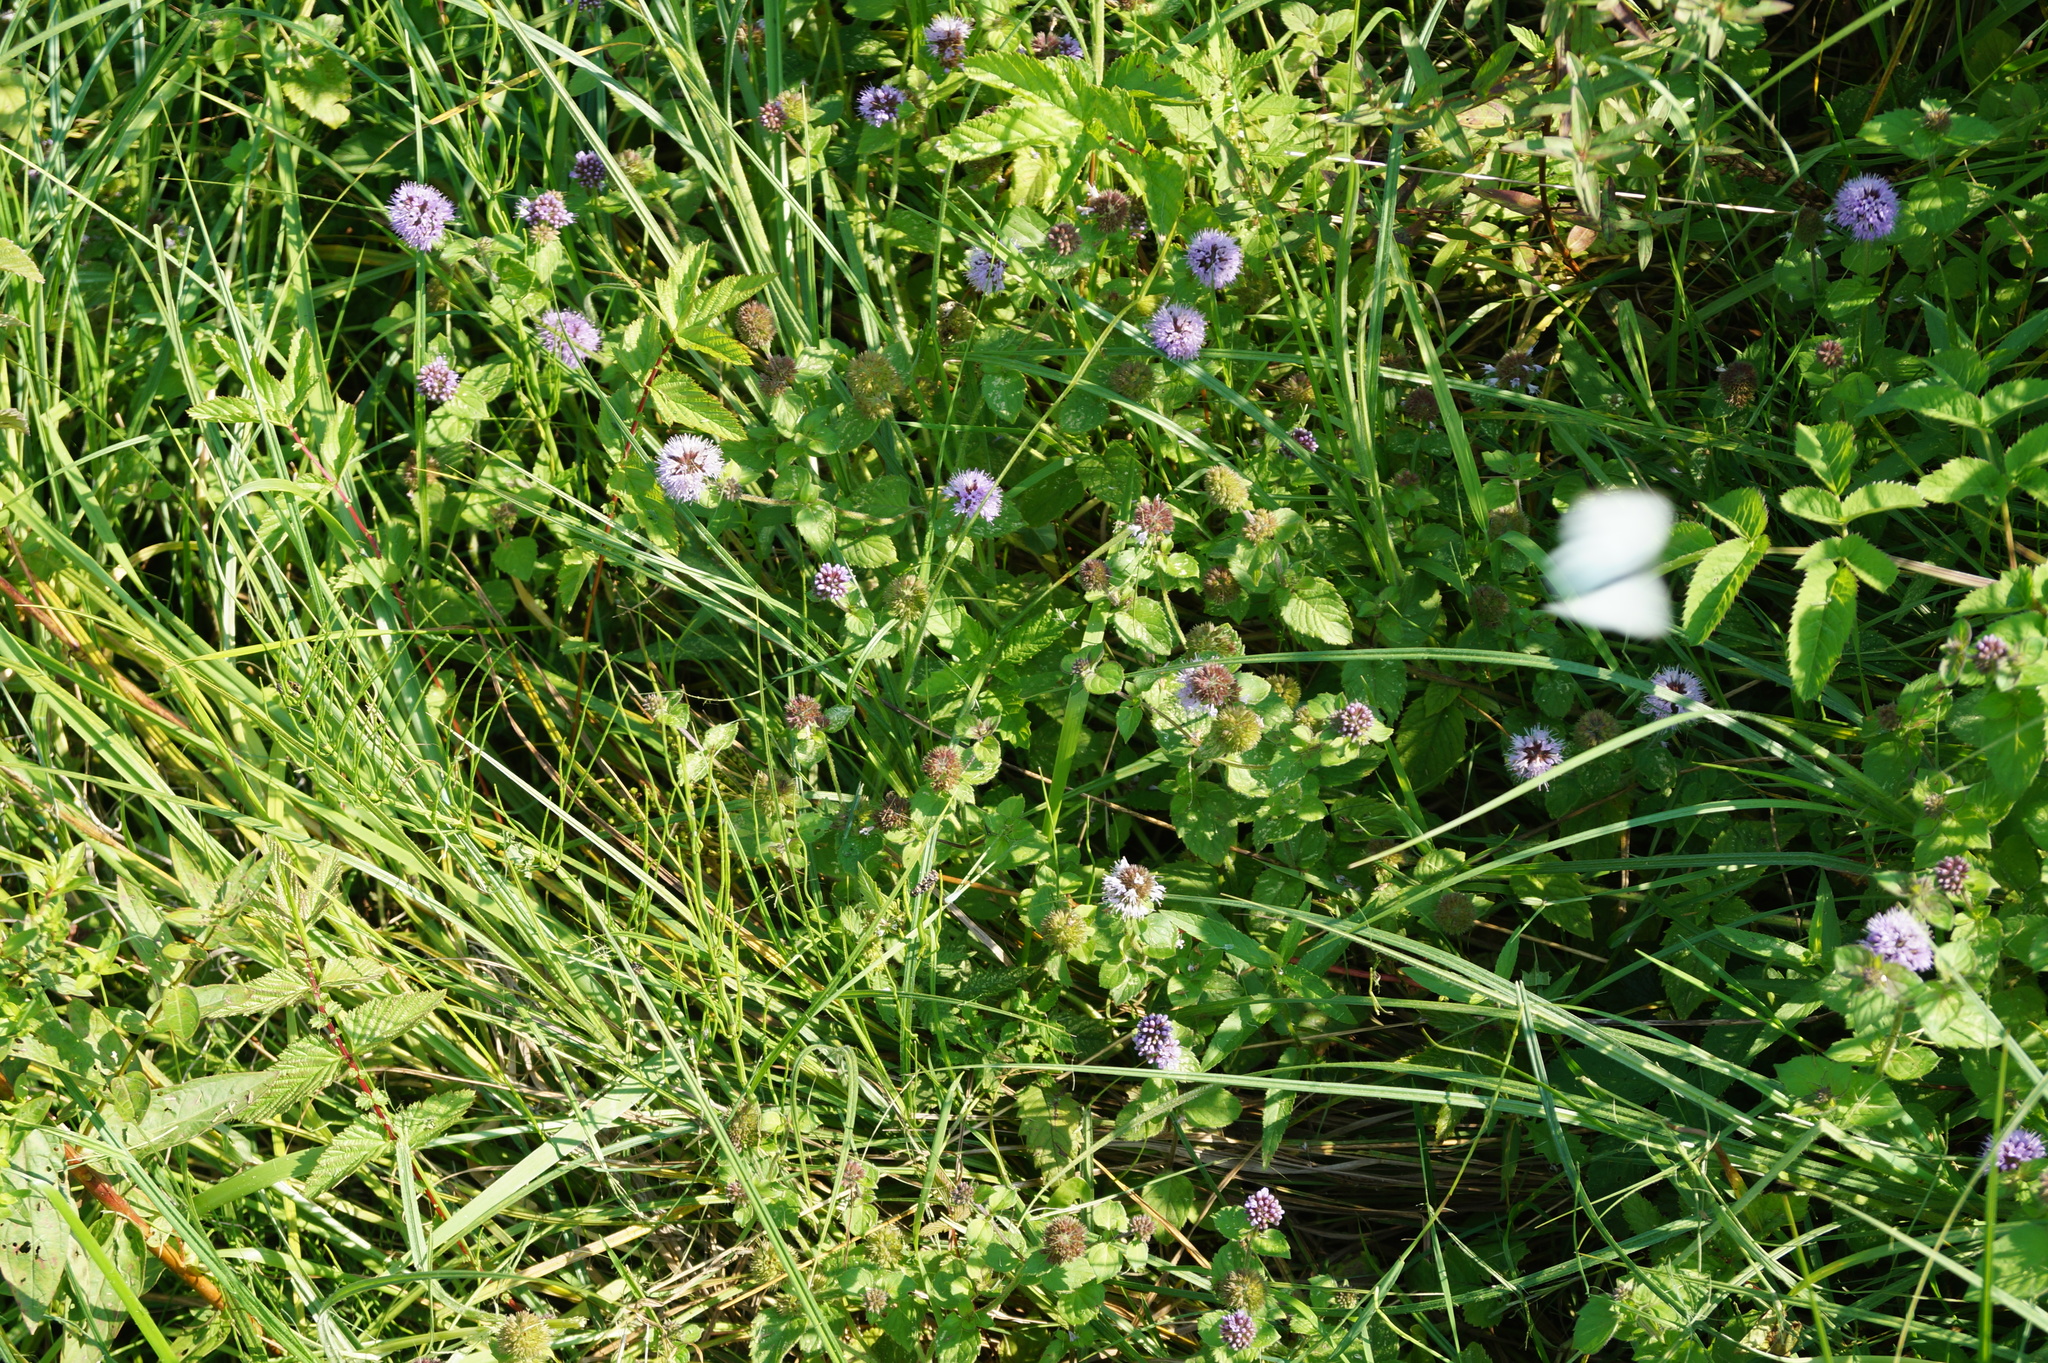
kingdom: Plantae
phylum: Tracheophyta
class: Magnoliopsida
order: Lamiales
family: Lamiaceae
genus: Mentha
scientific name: Mentha aquatica
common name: Water mint
